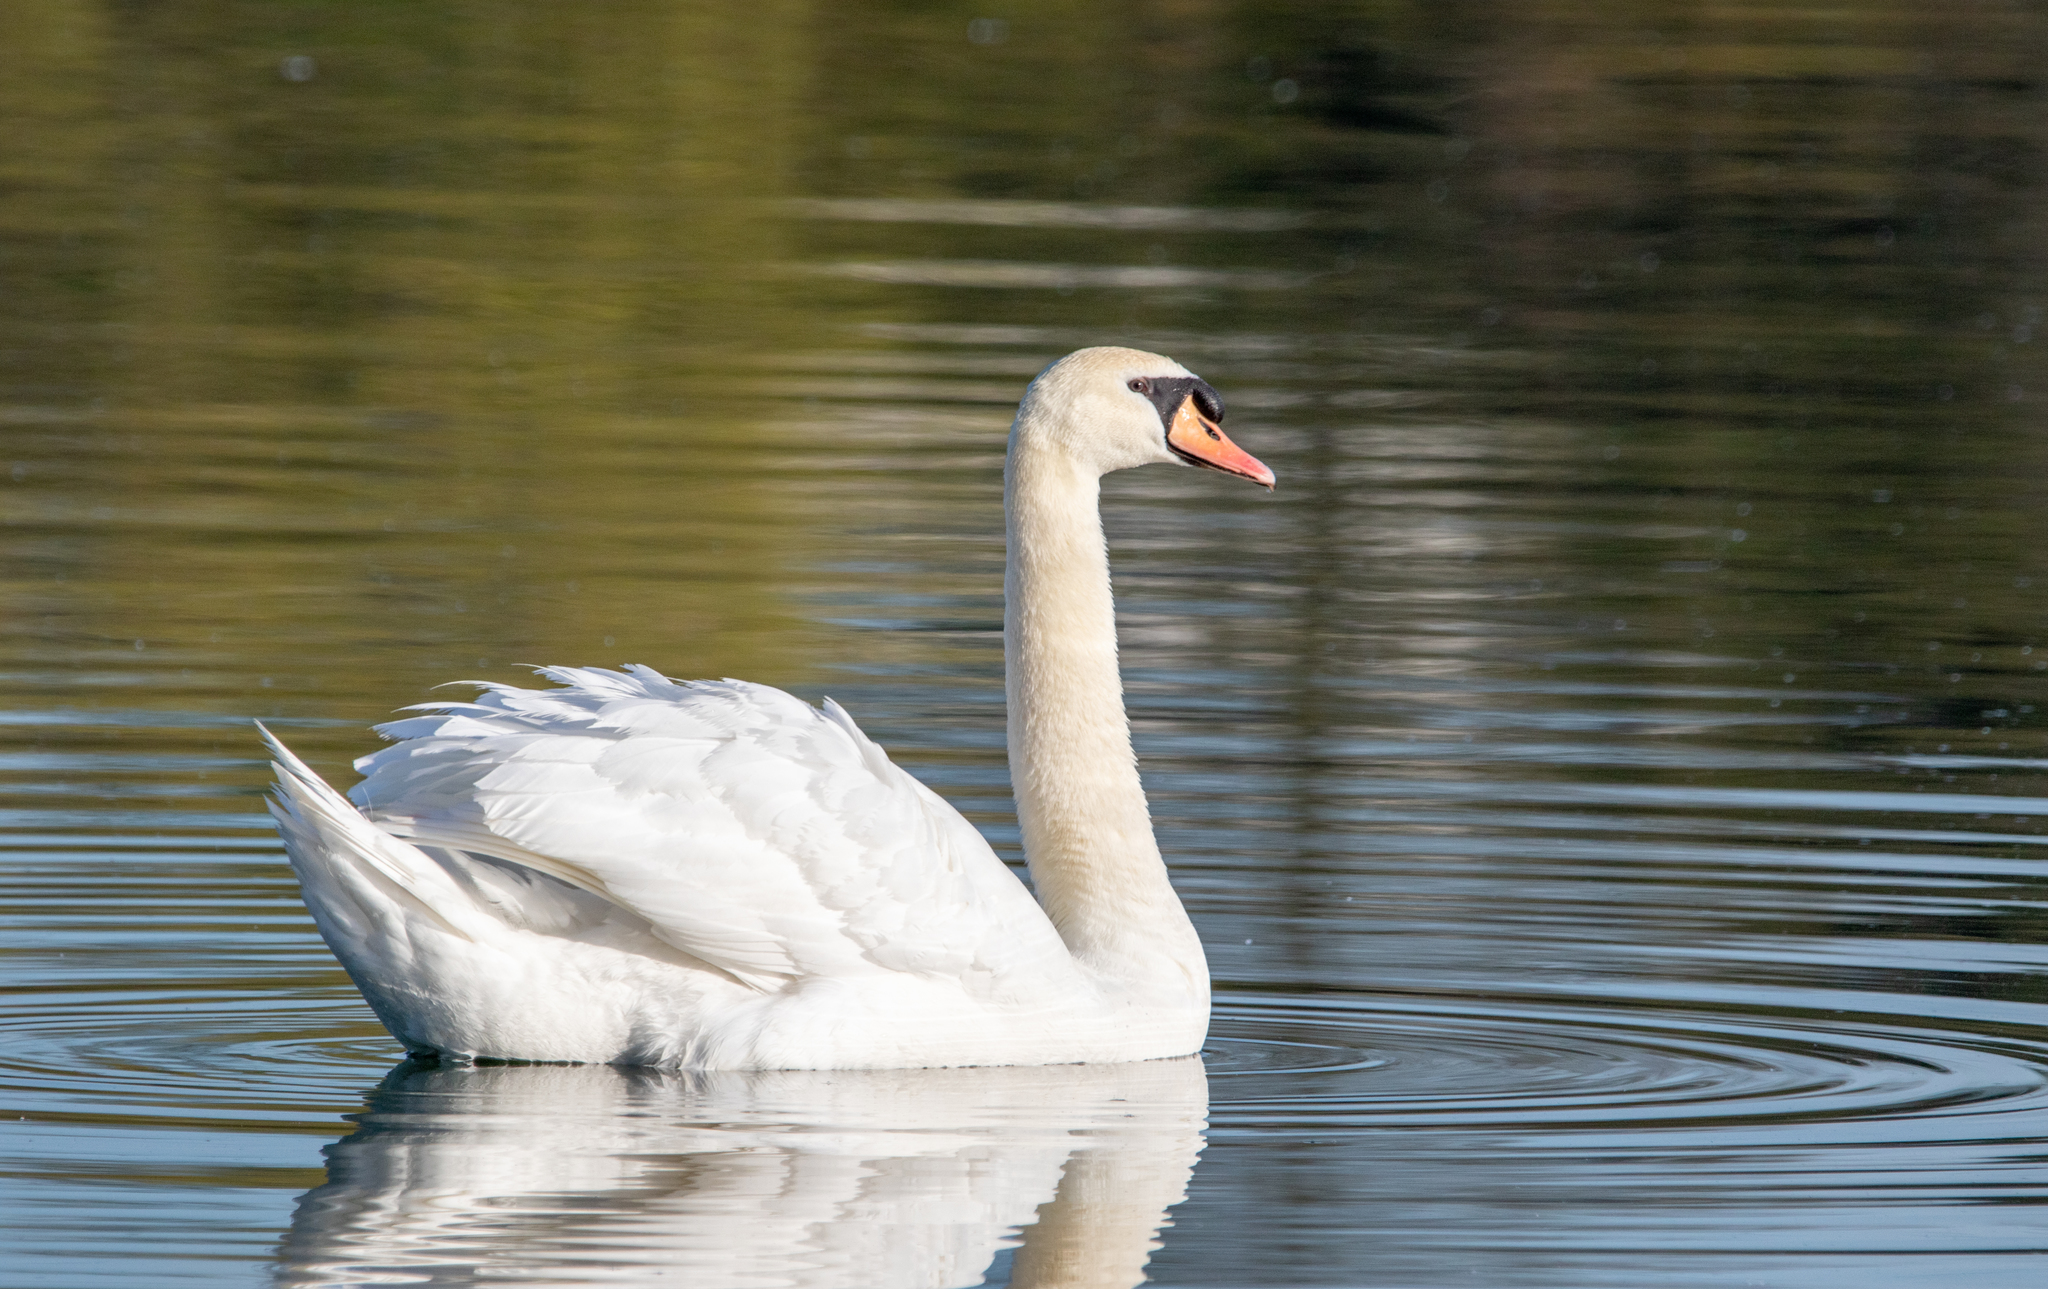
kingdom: Animalia
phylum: Chordata
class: Aves
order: Anseriformes
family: Anatidae
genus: Cygnus
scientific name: Cygnus olor
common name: Mute swan
